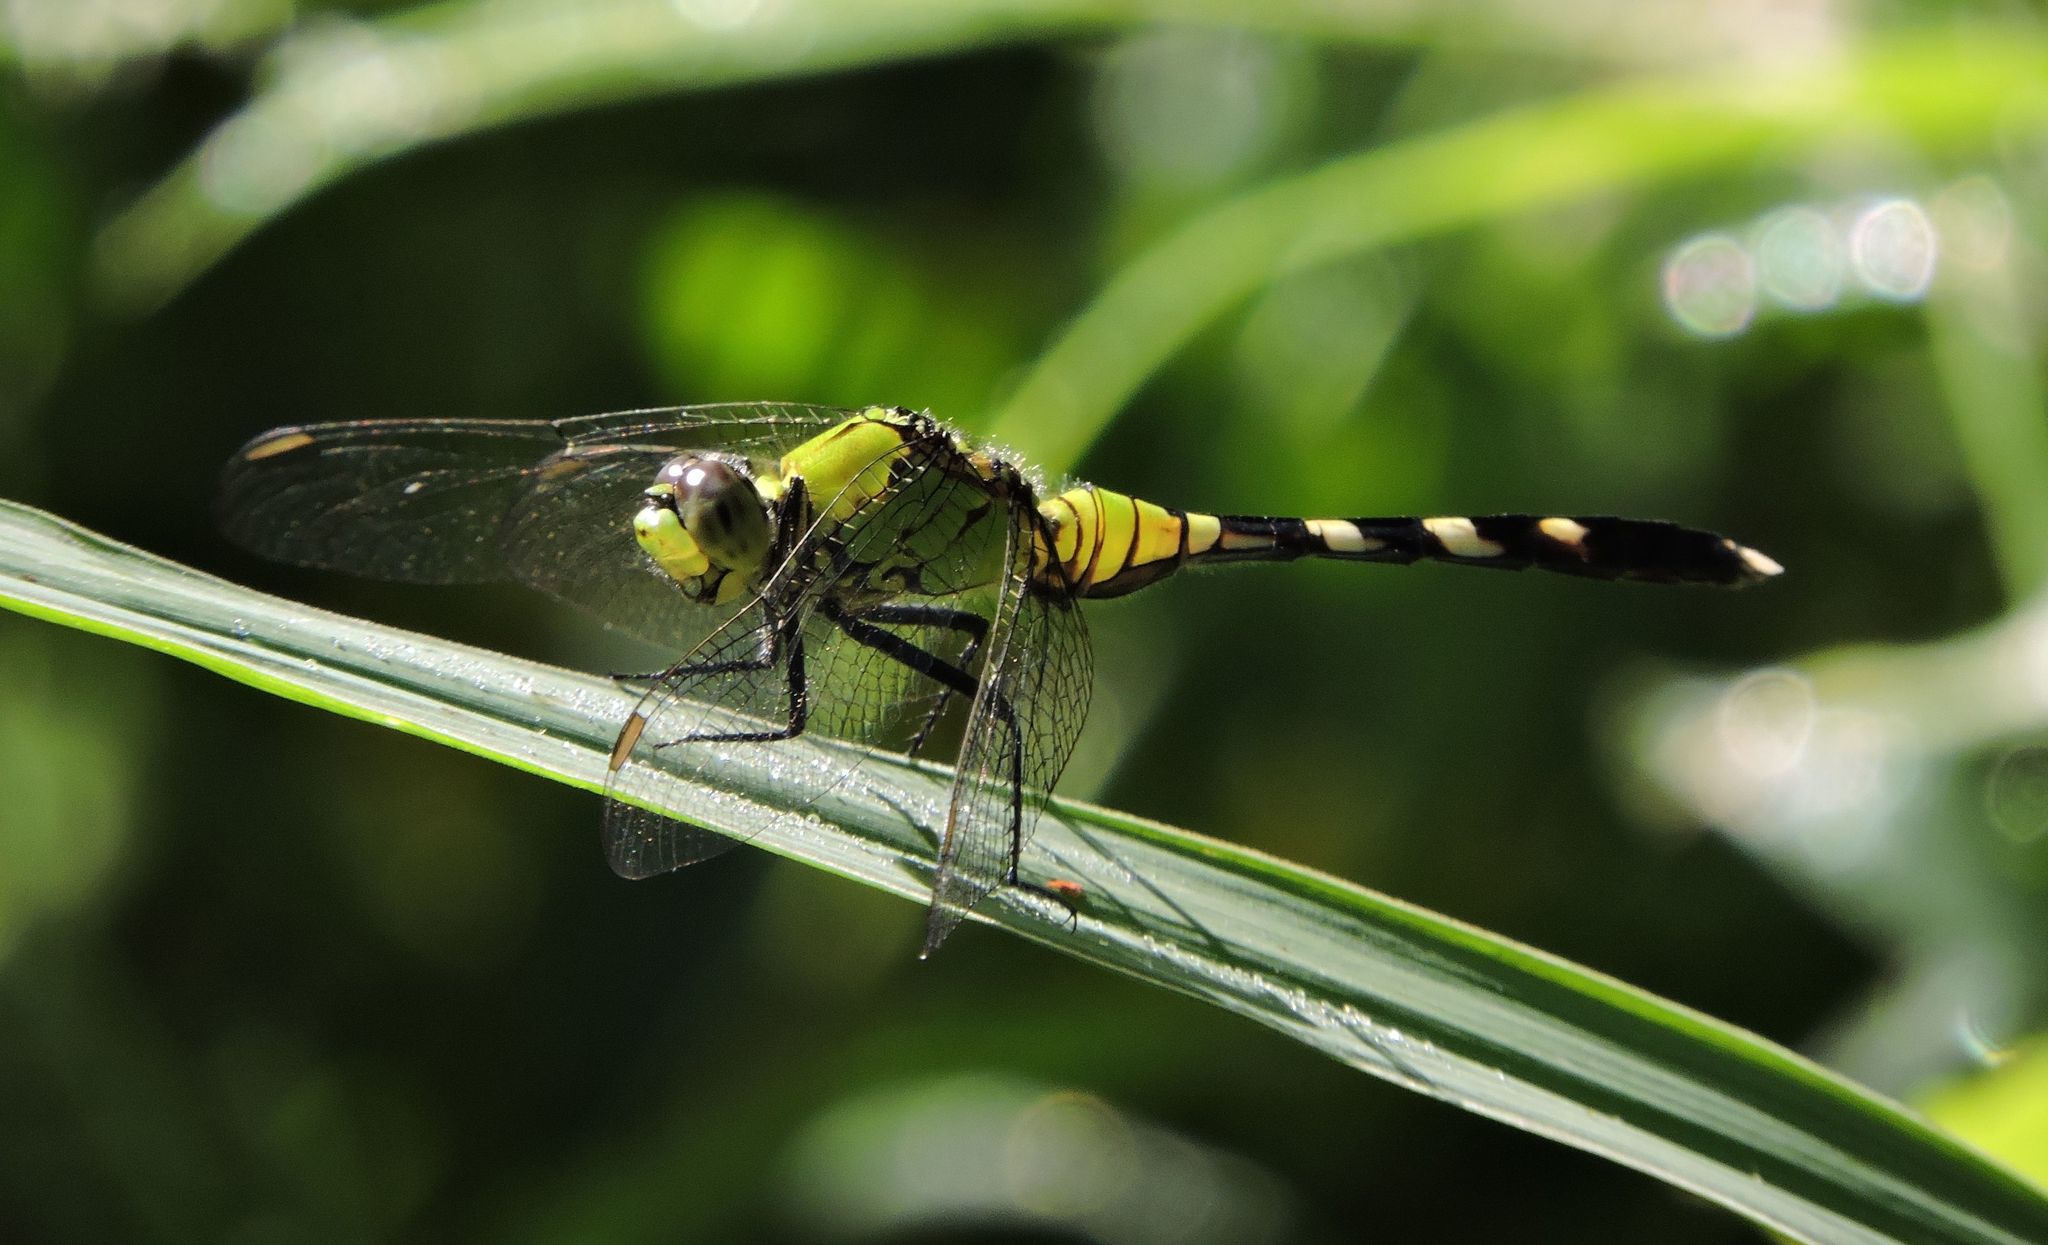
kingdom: Animalia
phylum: Arthropoda
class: Insecta
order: Odonata
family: Libellulidae
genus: Erythemis
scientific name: Erythemis simplicicollis
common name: Eastern pondhawk
